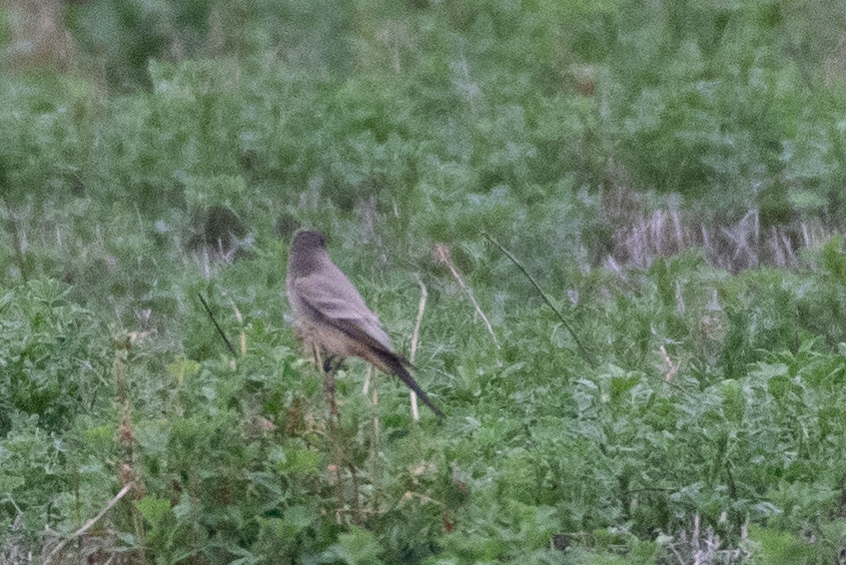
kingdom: Animalia
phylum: Chordata
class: Aves
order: Passeriformes
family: Tyrannidae
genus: Sayornis
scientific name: Sayornis saya
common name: Say's phoebe
